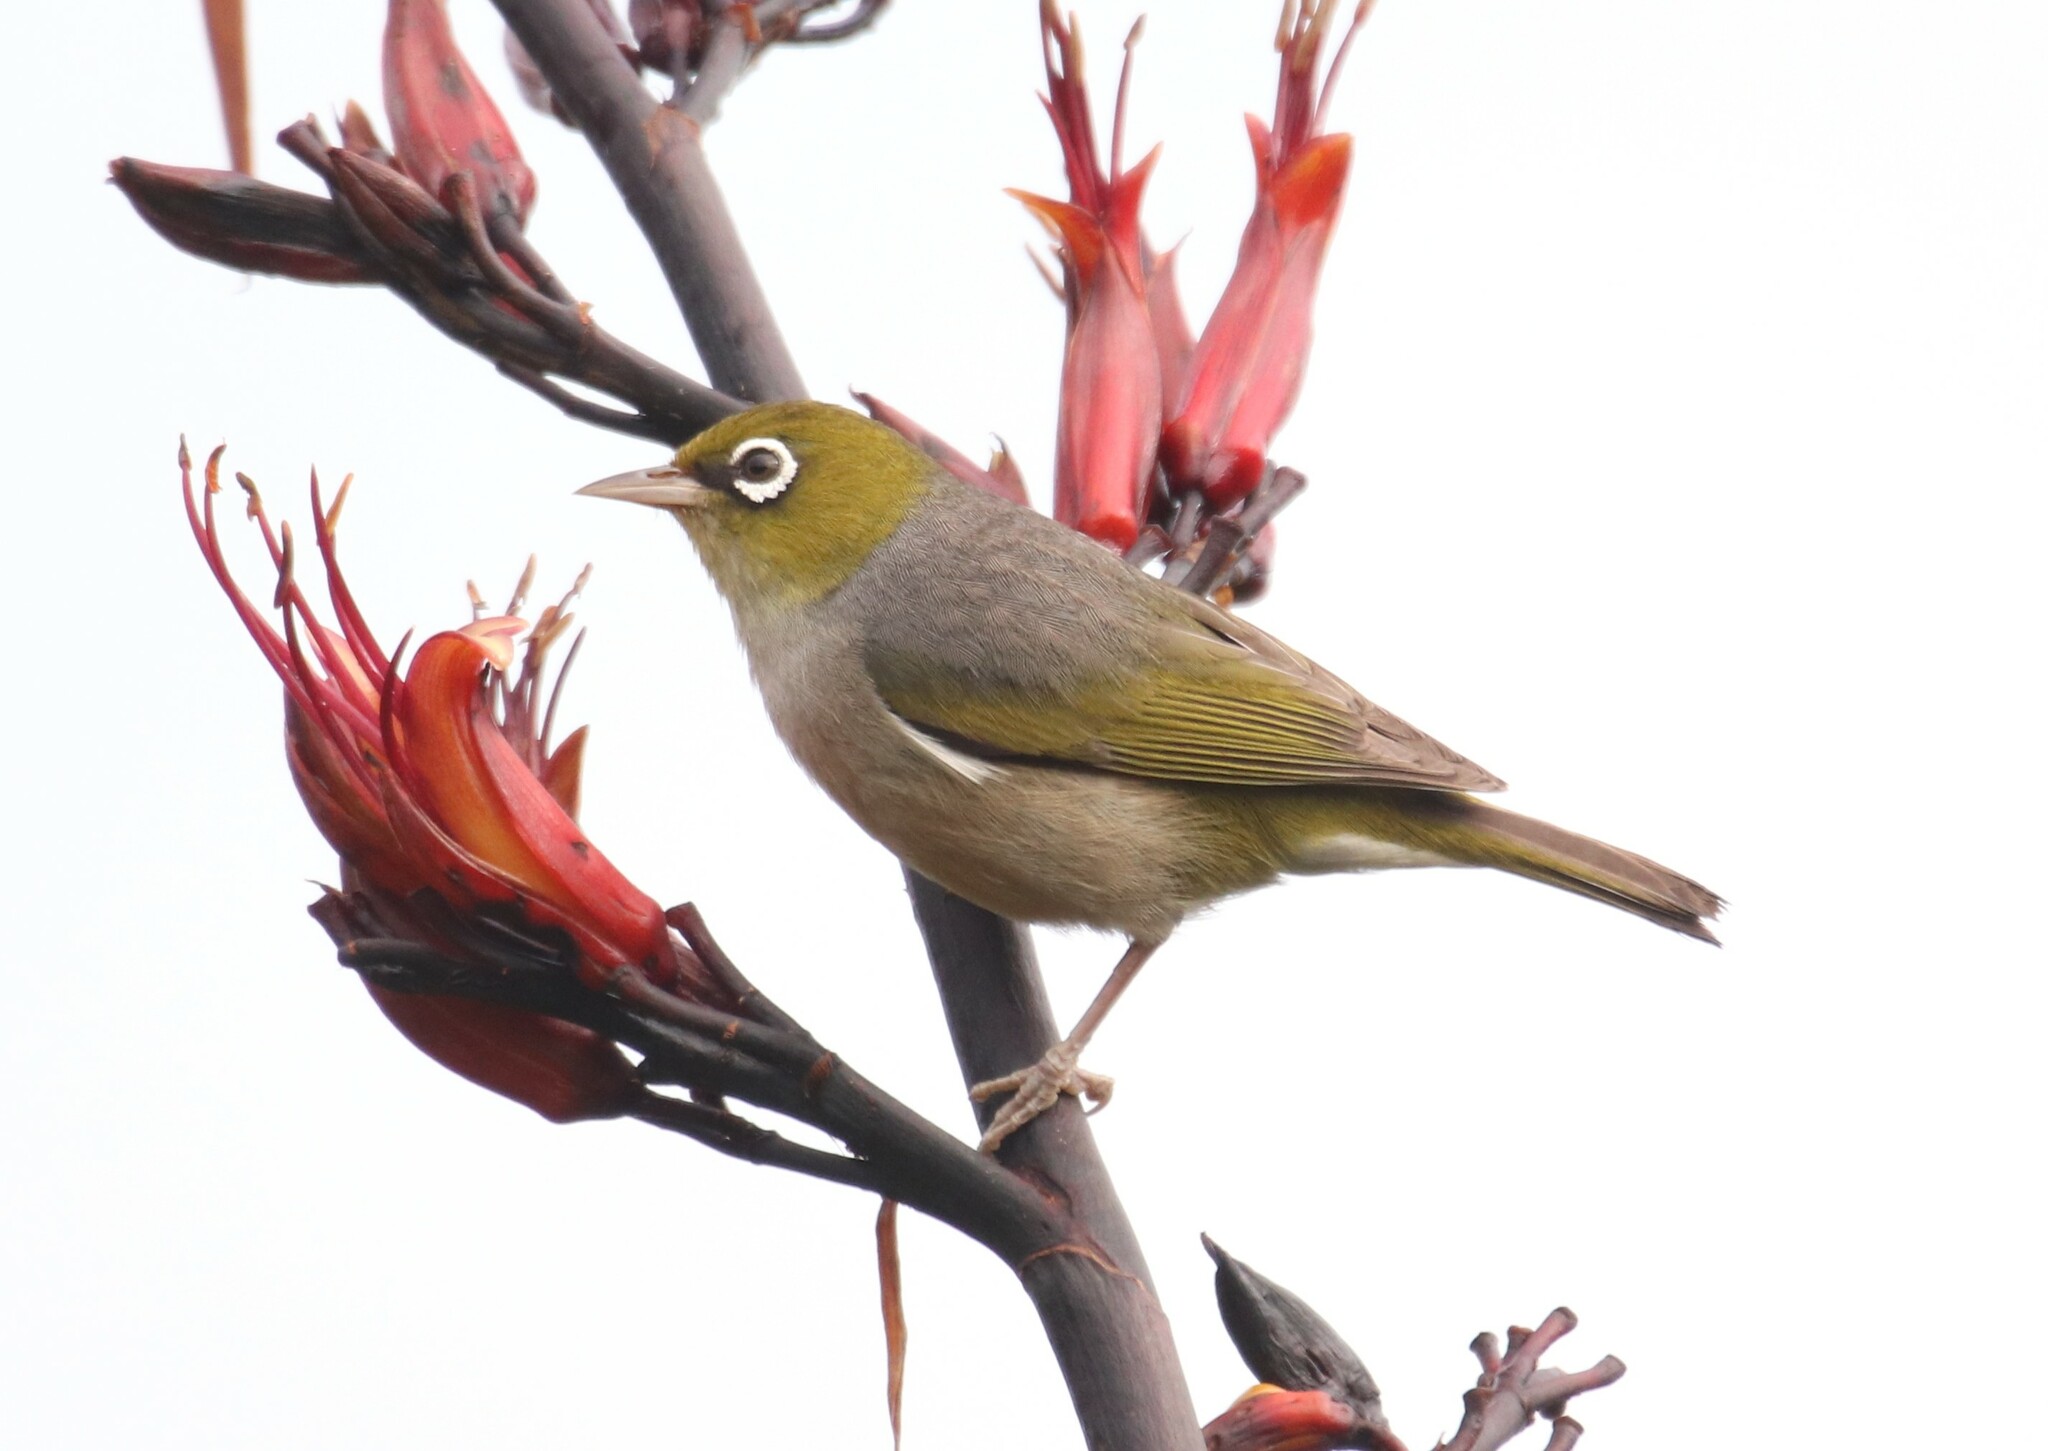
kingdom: Animalia
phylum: Chordata
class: Aves
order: Passeriformes
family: Zosteropidae
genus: Zosterops
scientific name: Zosterops lateralis
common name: Silvereye
